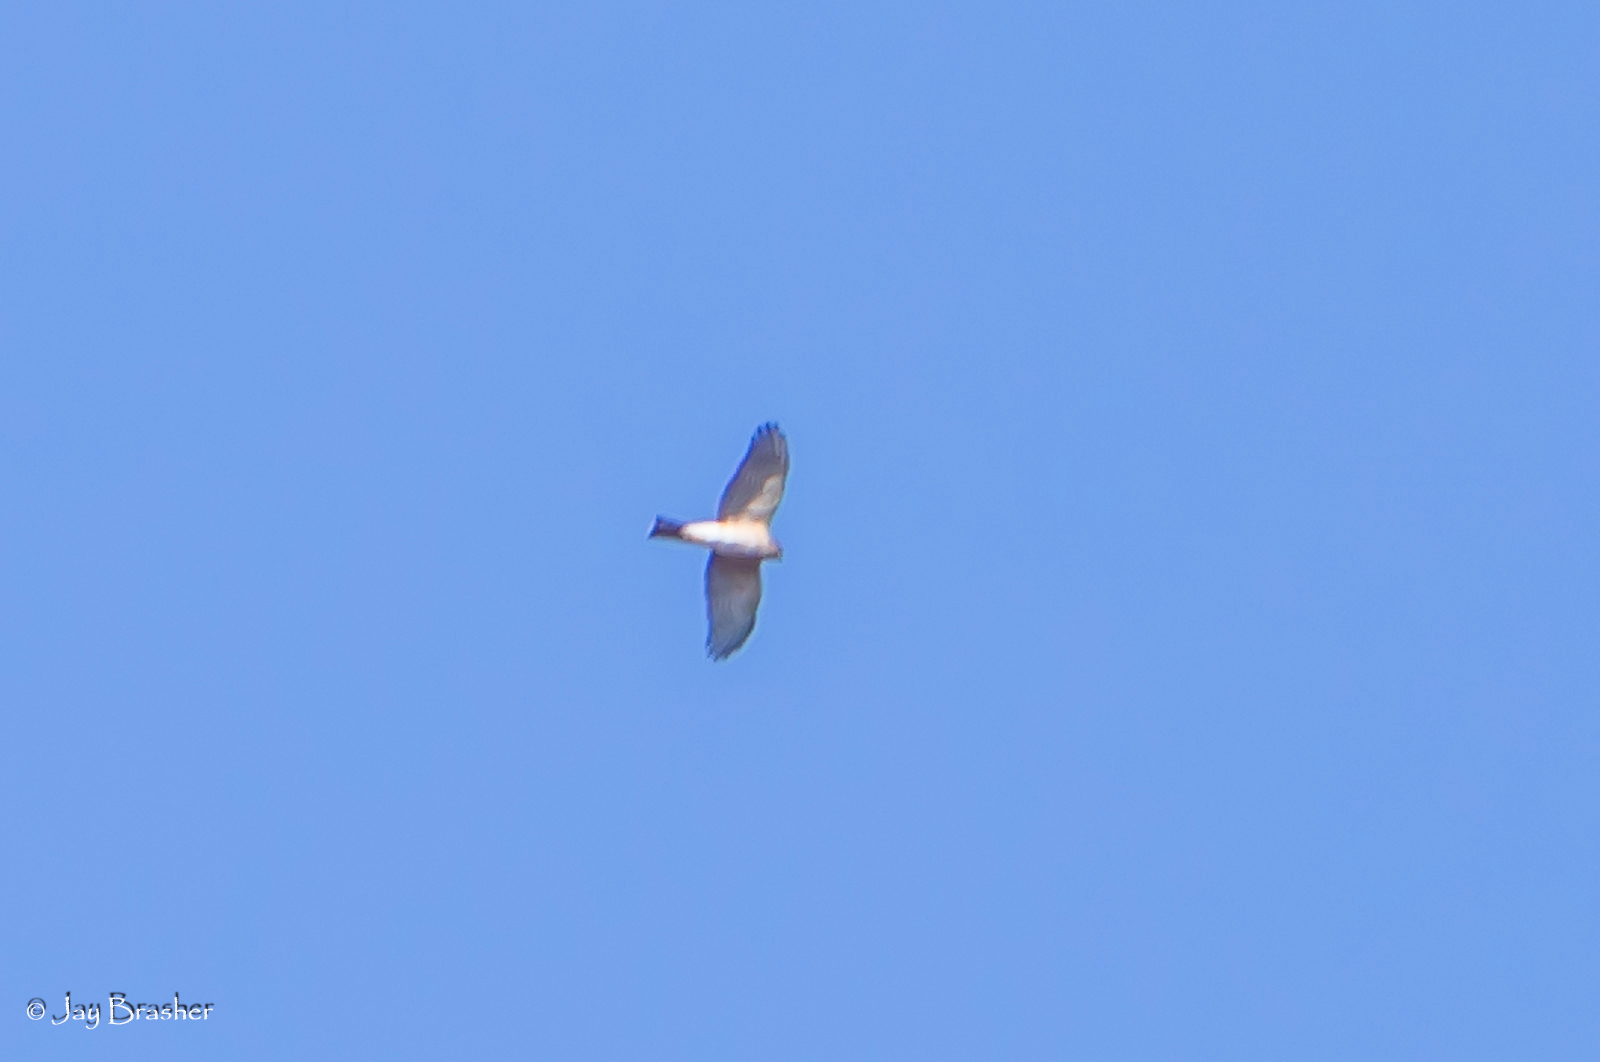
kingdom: Animalia
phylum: Chordata
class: Aves
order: Accipitriformes
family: Accipitridae
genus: Accipiter
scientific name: Accipiter striatus
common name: Sharp-shinned hawk
